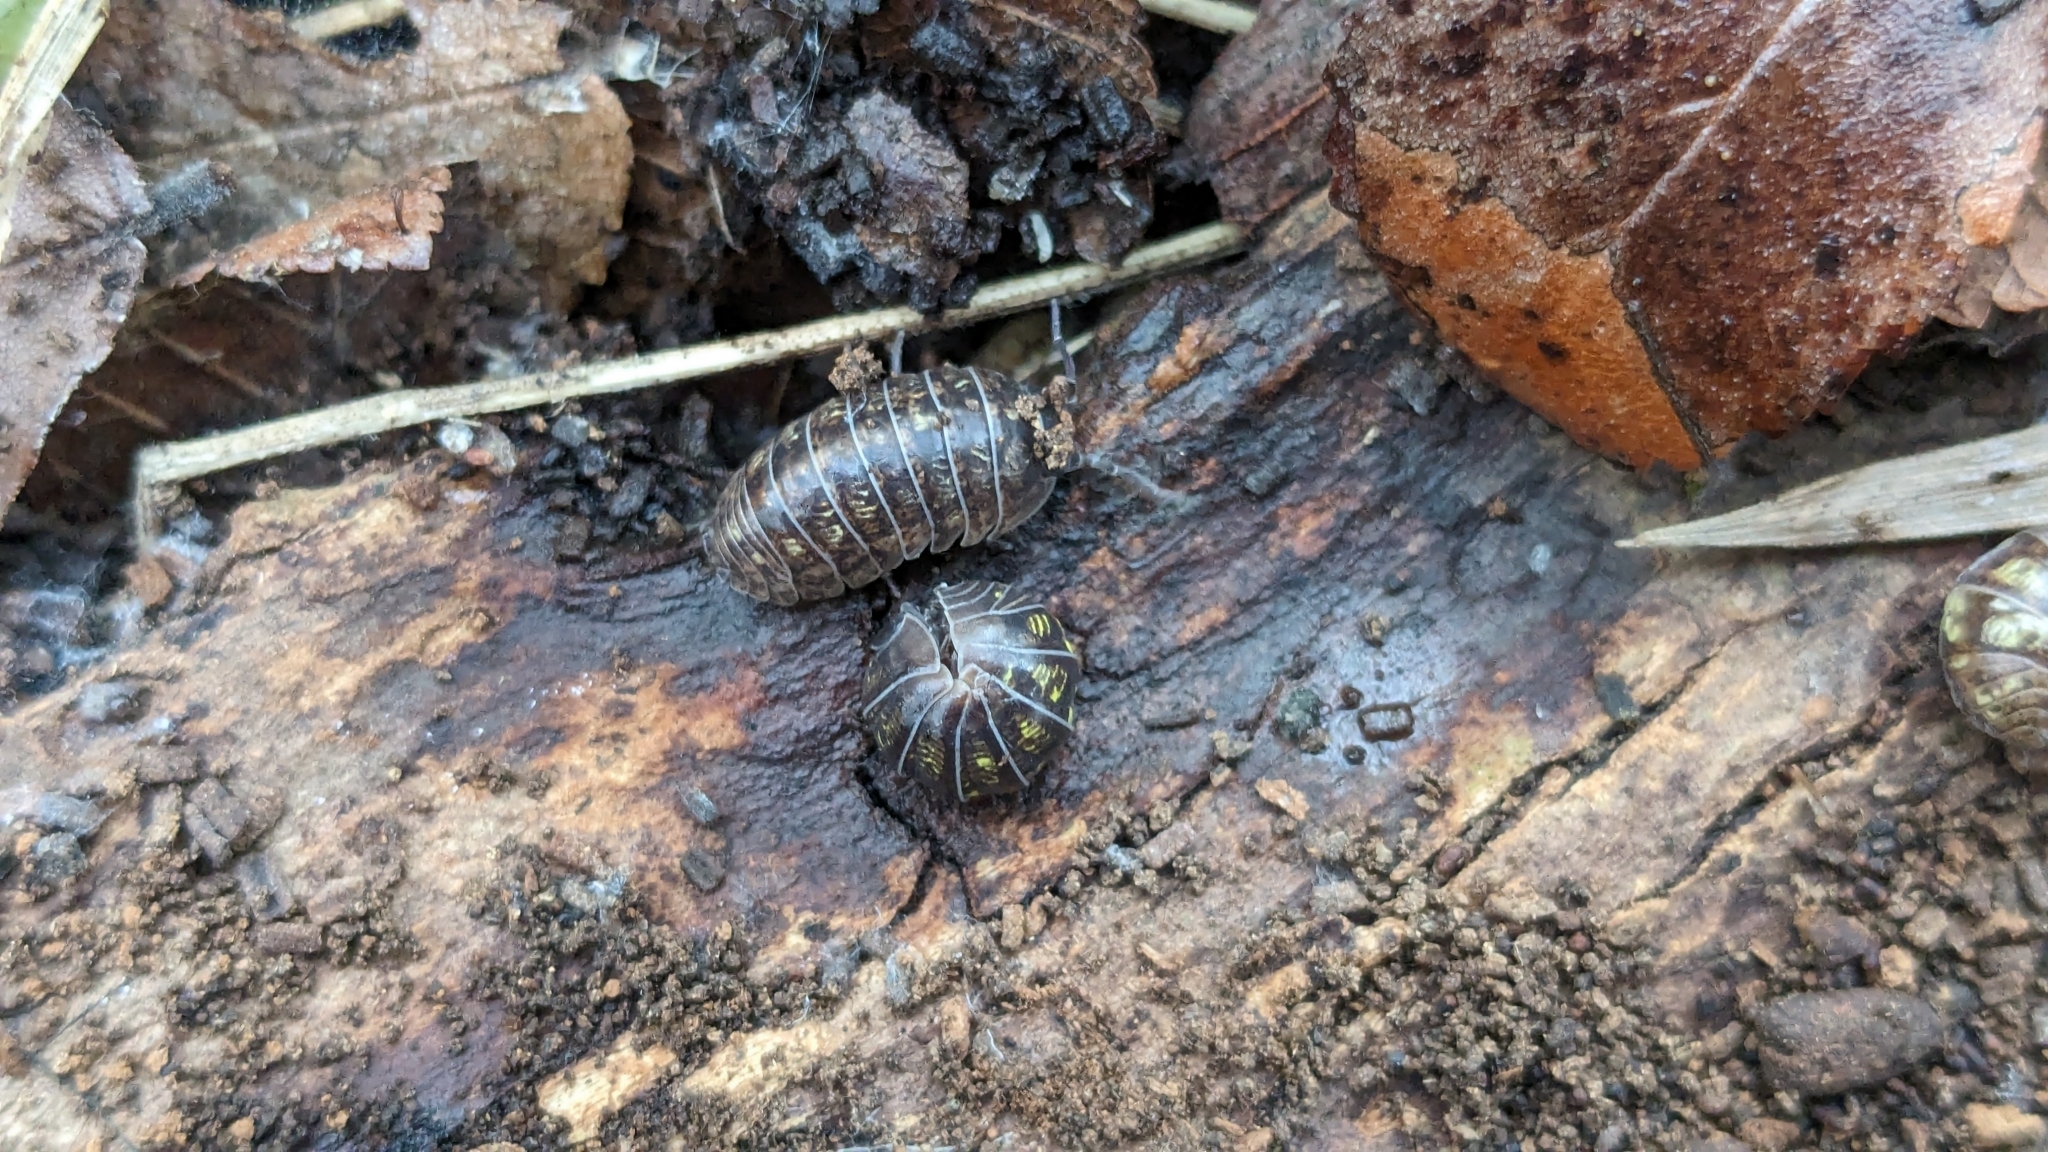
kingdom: Animalia
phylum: Arthropoda
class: Malacostraca
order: Isopoda
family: Armadillidiidae
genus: Armadillidium
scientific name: Armadillidium vulgare
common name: Common pill woodlouse
